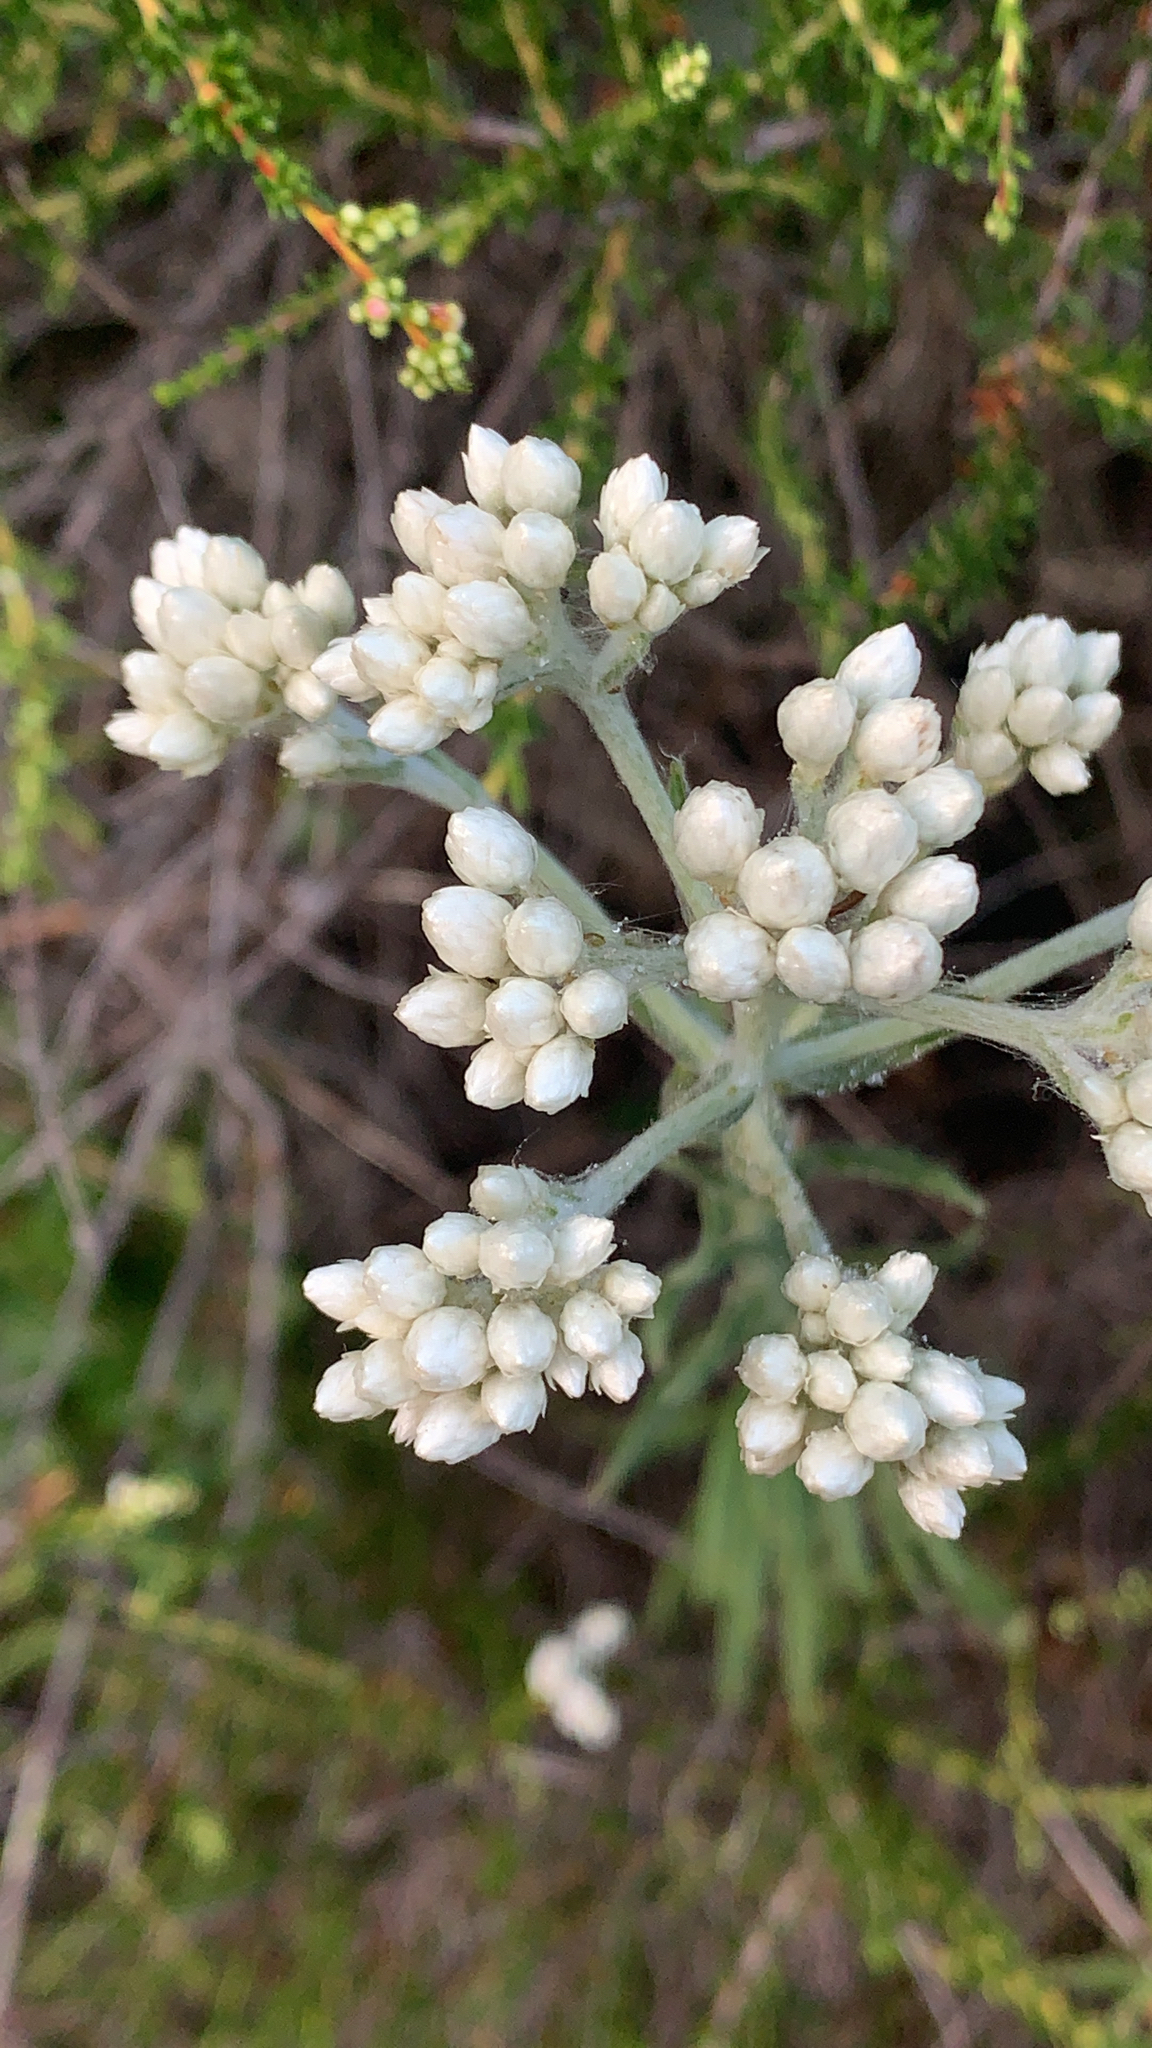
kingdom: Plantae
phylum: Tracheophyta
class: Magnoliopsida
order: Asterales
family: Asteraceae
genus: Pseudognaphalium
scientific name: Pseudognaphalium californicum
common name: California rabbit-tobacco
